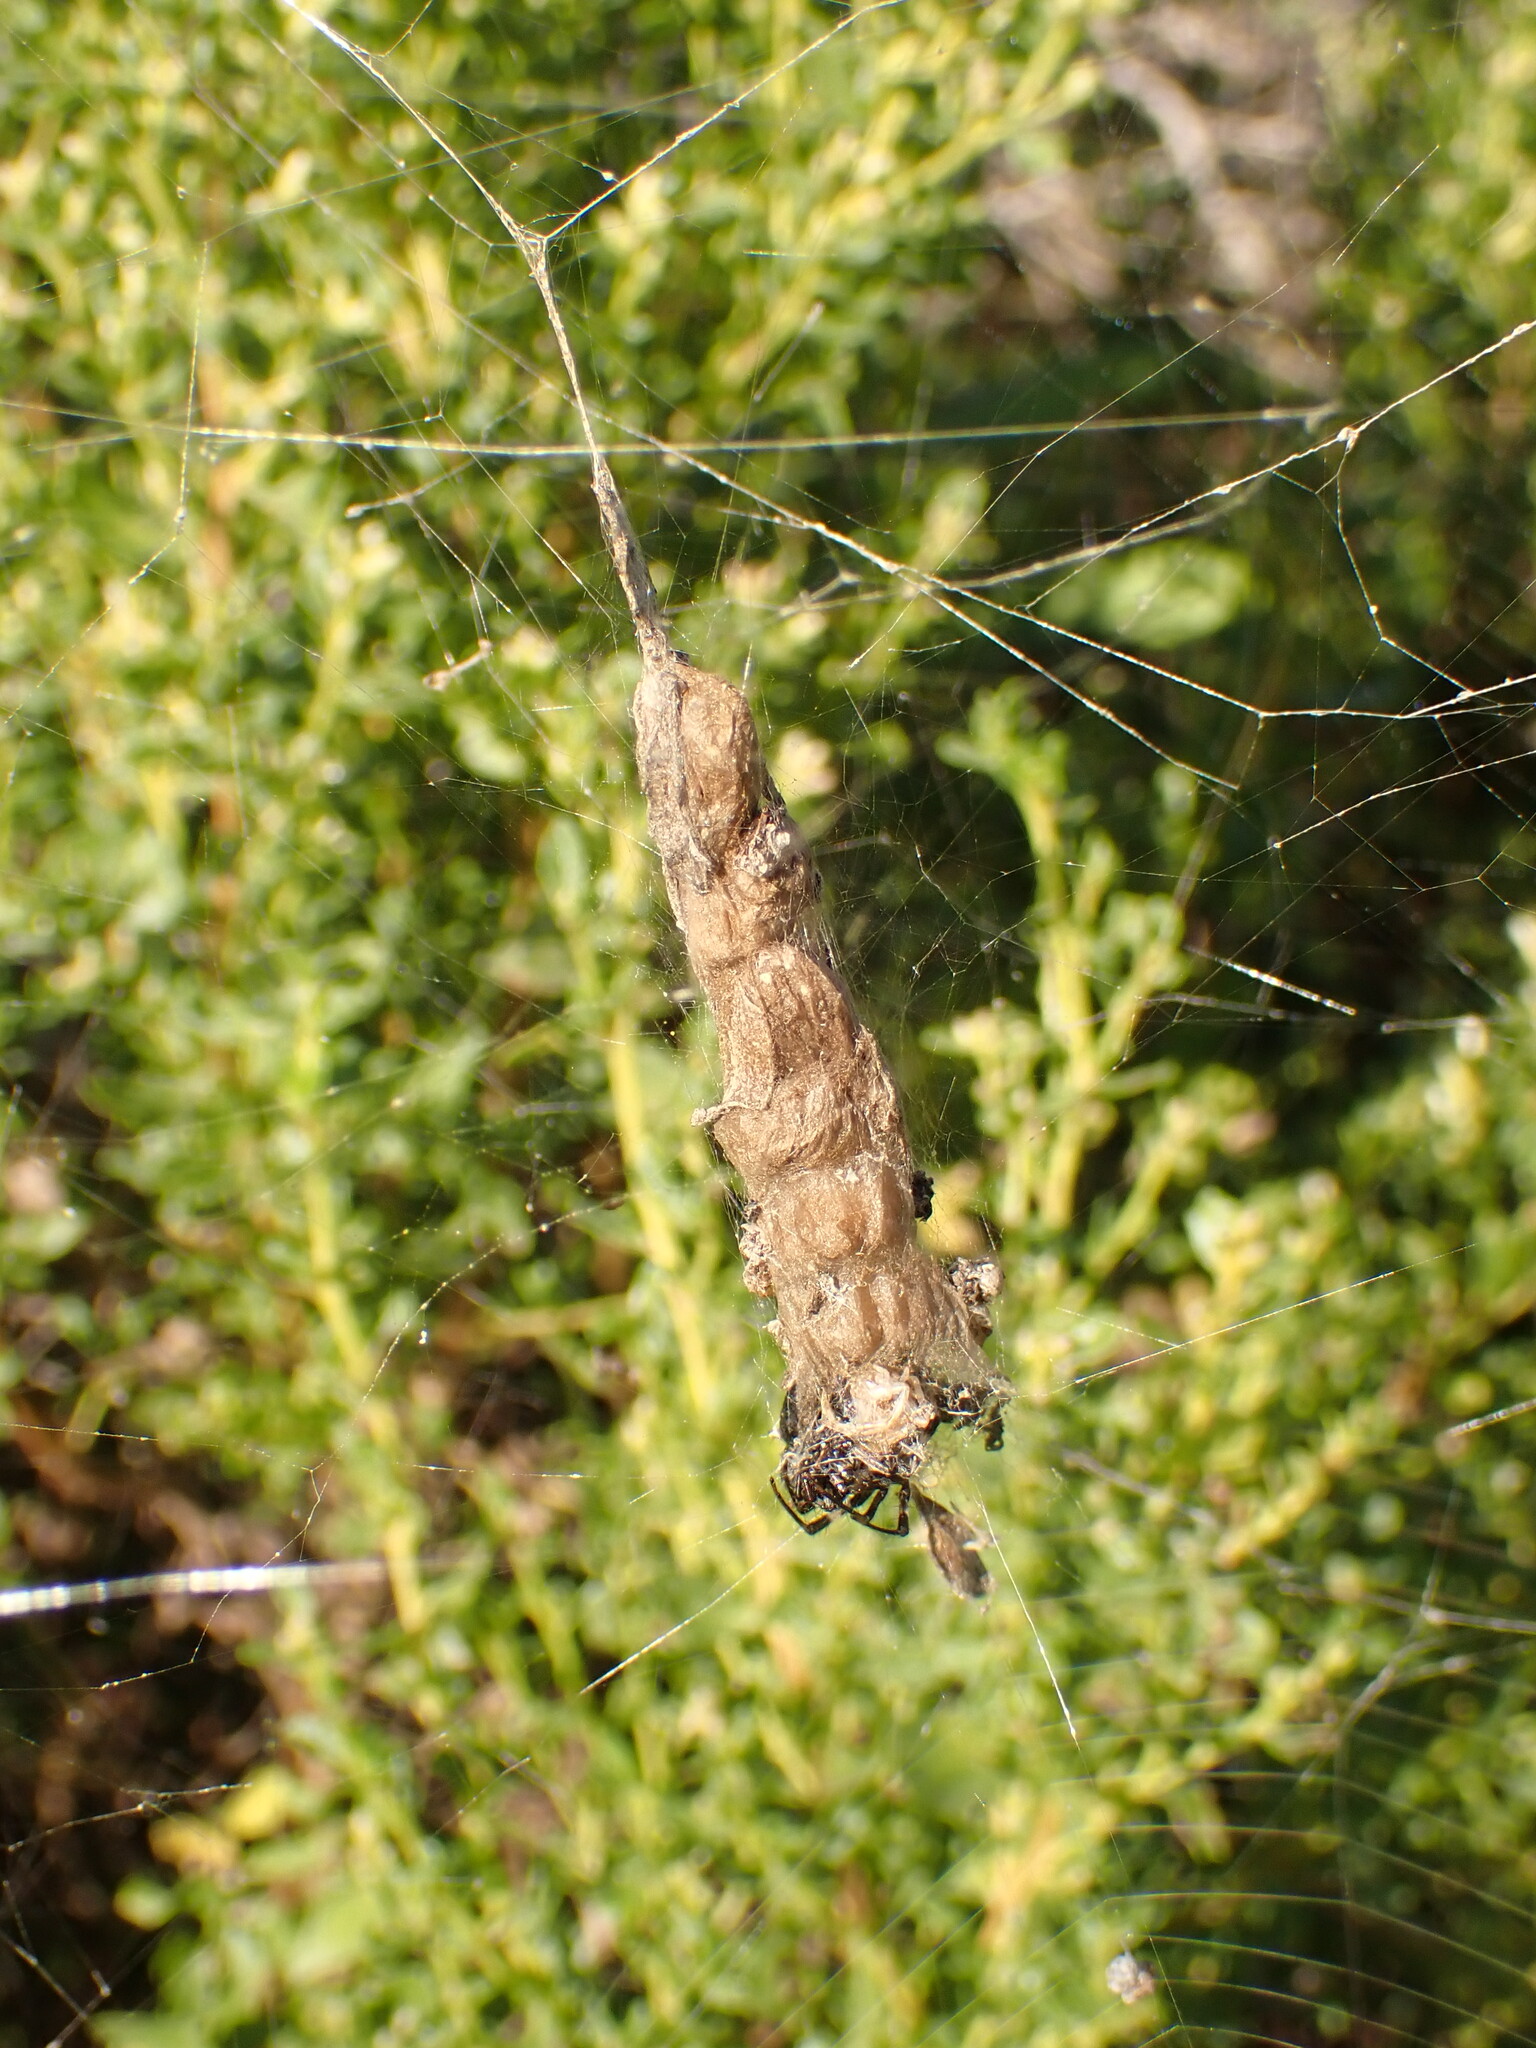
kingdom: Animalia
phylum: Arthropoda
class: Arachnida
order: Araneae
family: Araneidae
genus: Metepeira
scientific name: Metepeira
